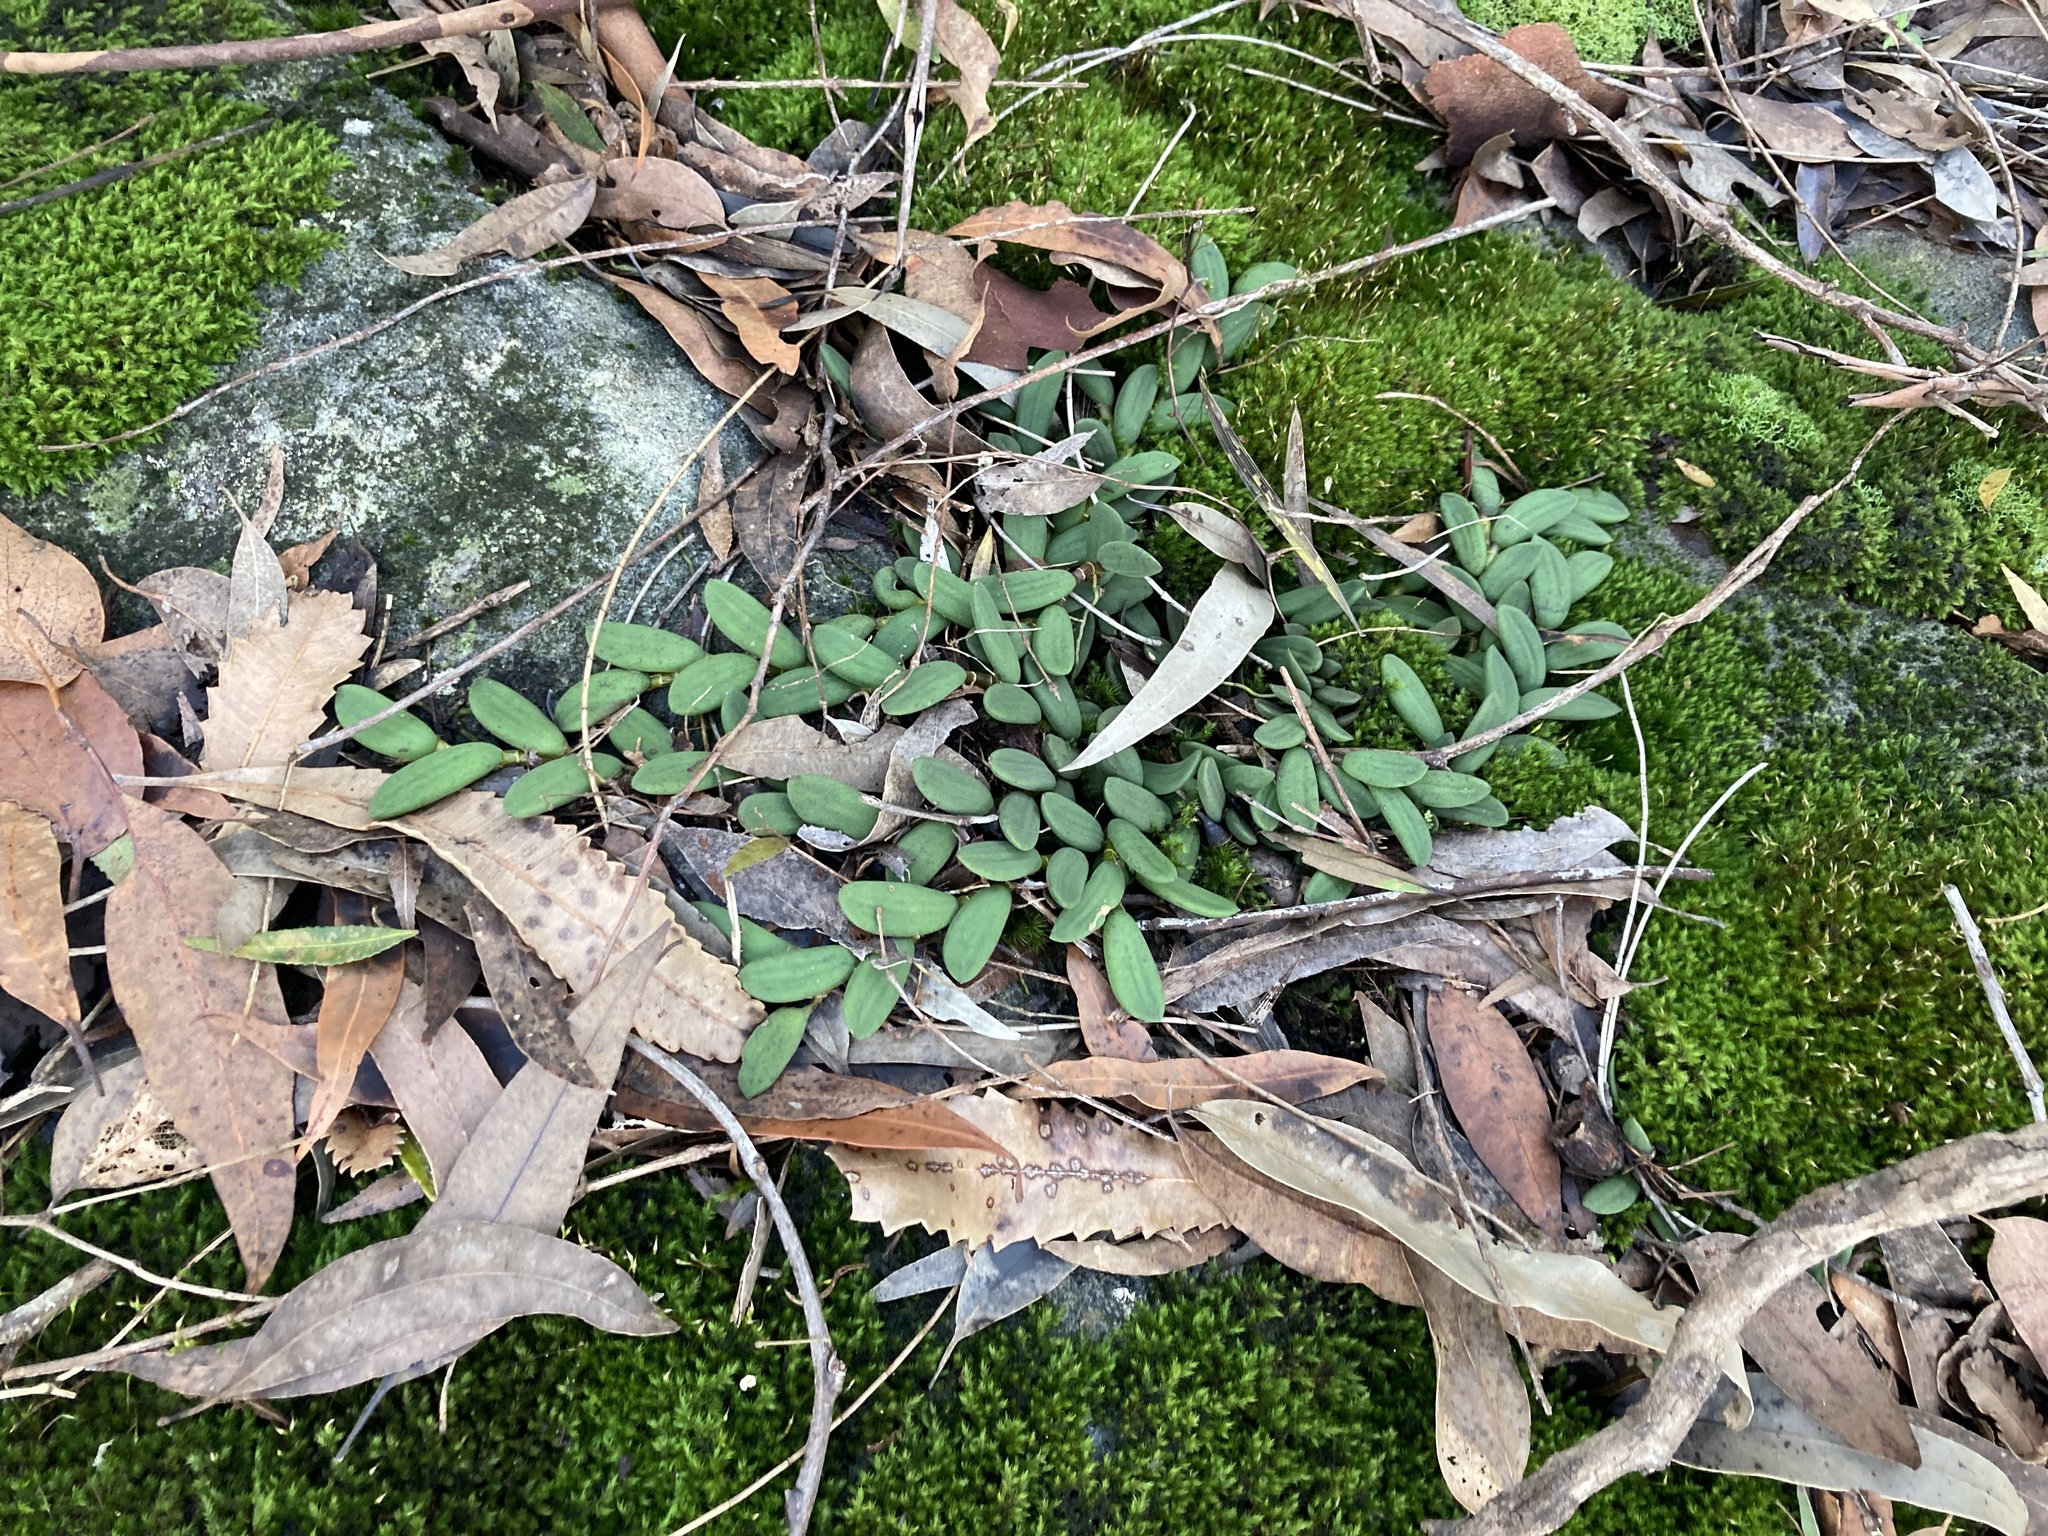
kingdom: Plantae
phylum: Tracheophyta
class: Liliopsida
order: Asparagales
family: Orchidaceae
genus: Dendrobium
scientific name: Dendrobium linguiforme
